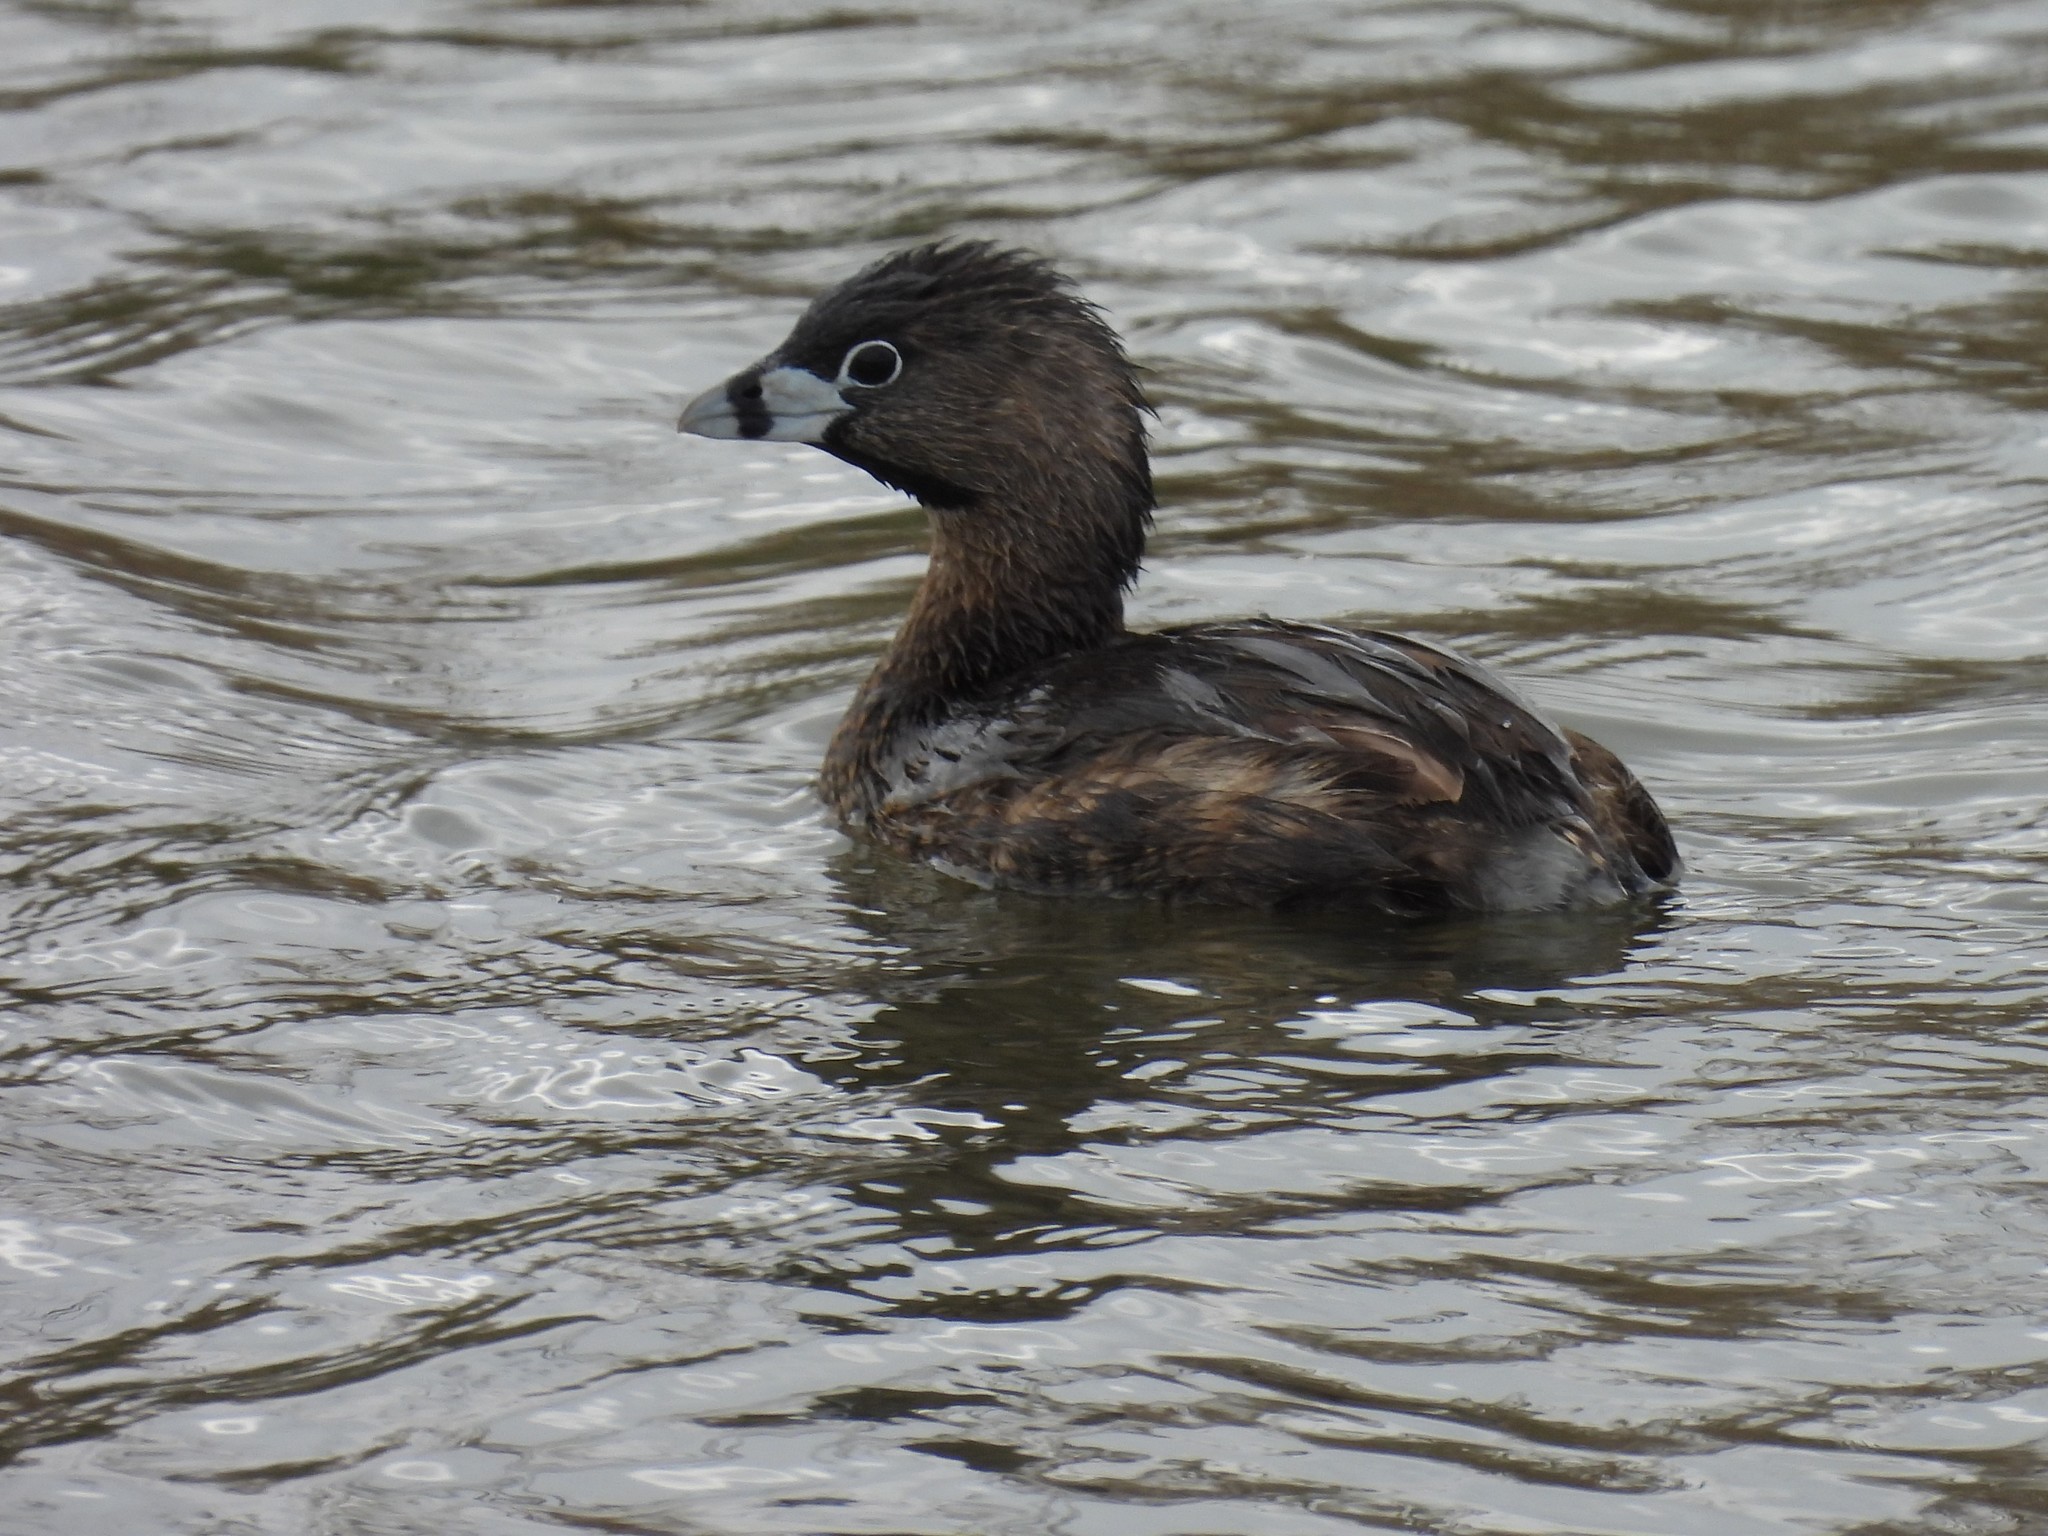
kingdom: Animalia
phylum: Chordata
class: Aves
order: Podicipediformes
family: Podicipedidae
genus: Podilymbus
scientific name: Podilymbus podiceps
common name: Pied-billed grebe
